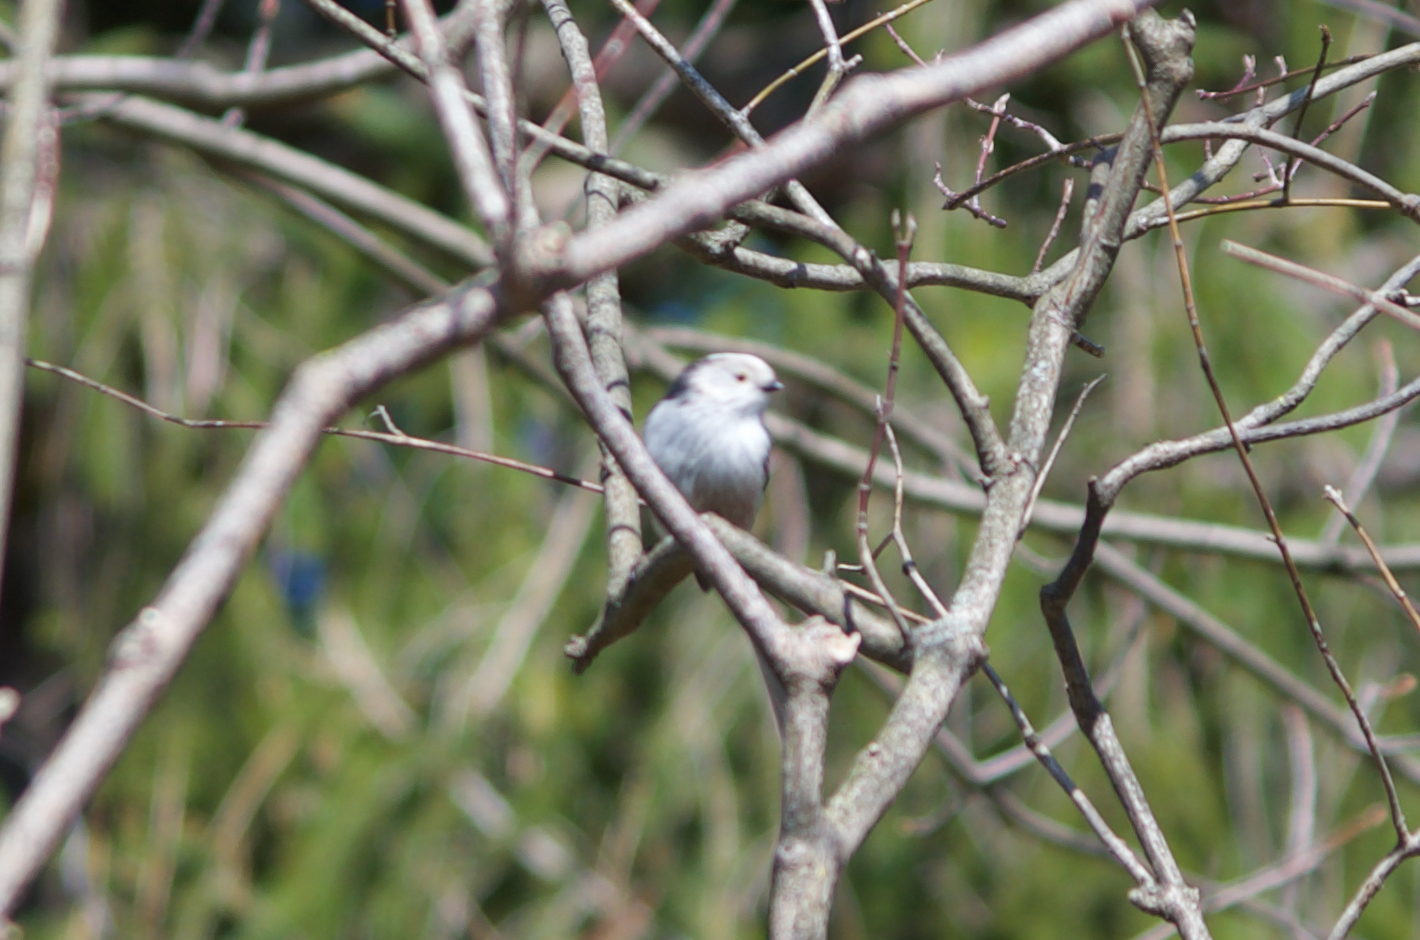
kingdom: Animalia
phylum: Chordata
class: Aves
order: Passeriformes
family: Aegithalidae
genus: Aegithalos
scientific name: Aegithalos caudatus
